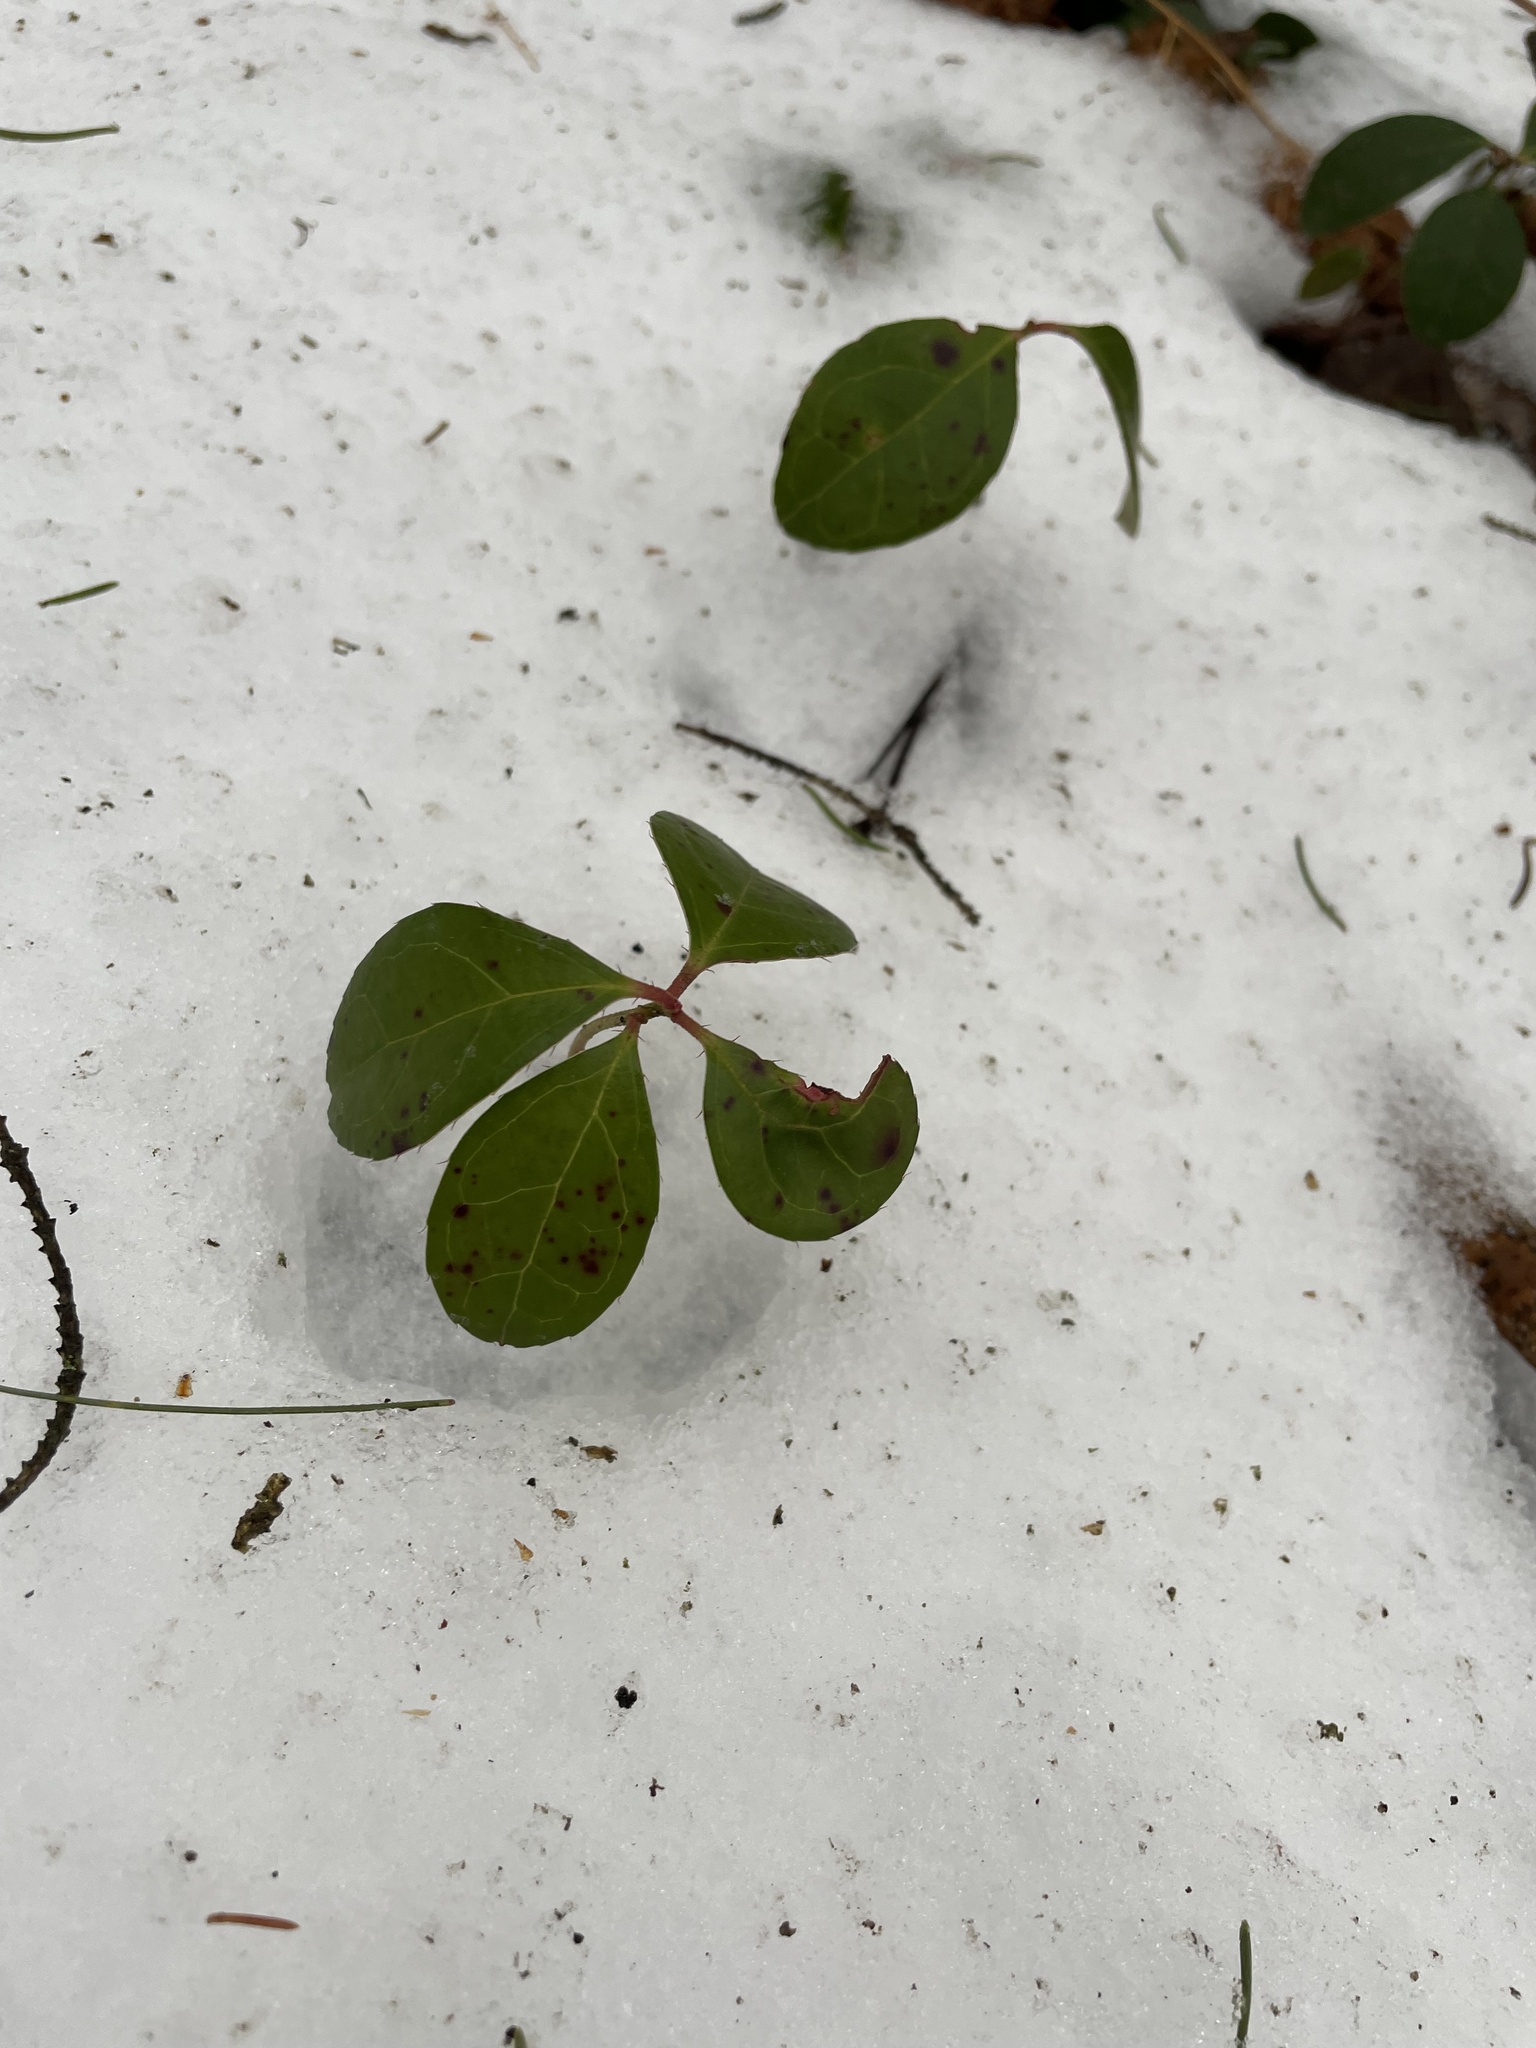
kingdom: Plantae
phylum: Tracheophyta
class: Magnoliopsida
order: Ericales
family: Ericaceae
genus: Gaultheria
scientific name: Gaultheria procumbens
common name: Checkerberry
